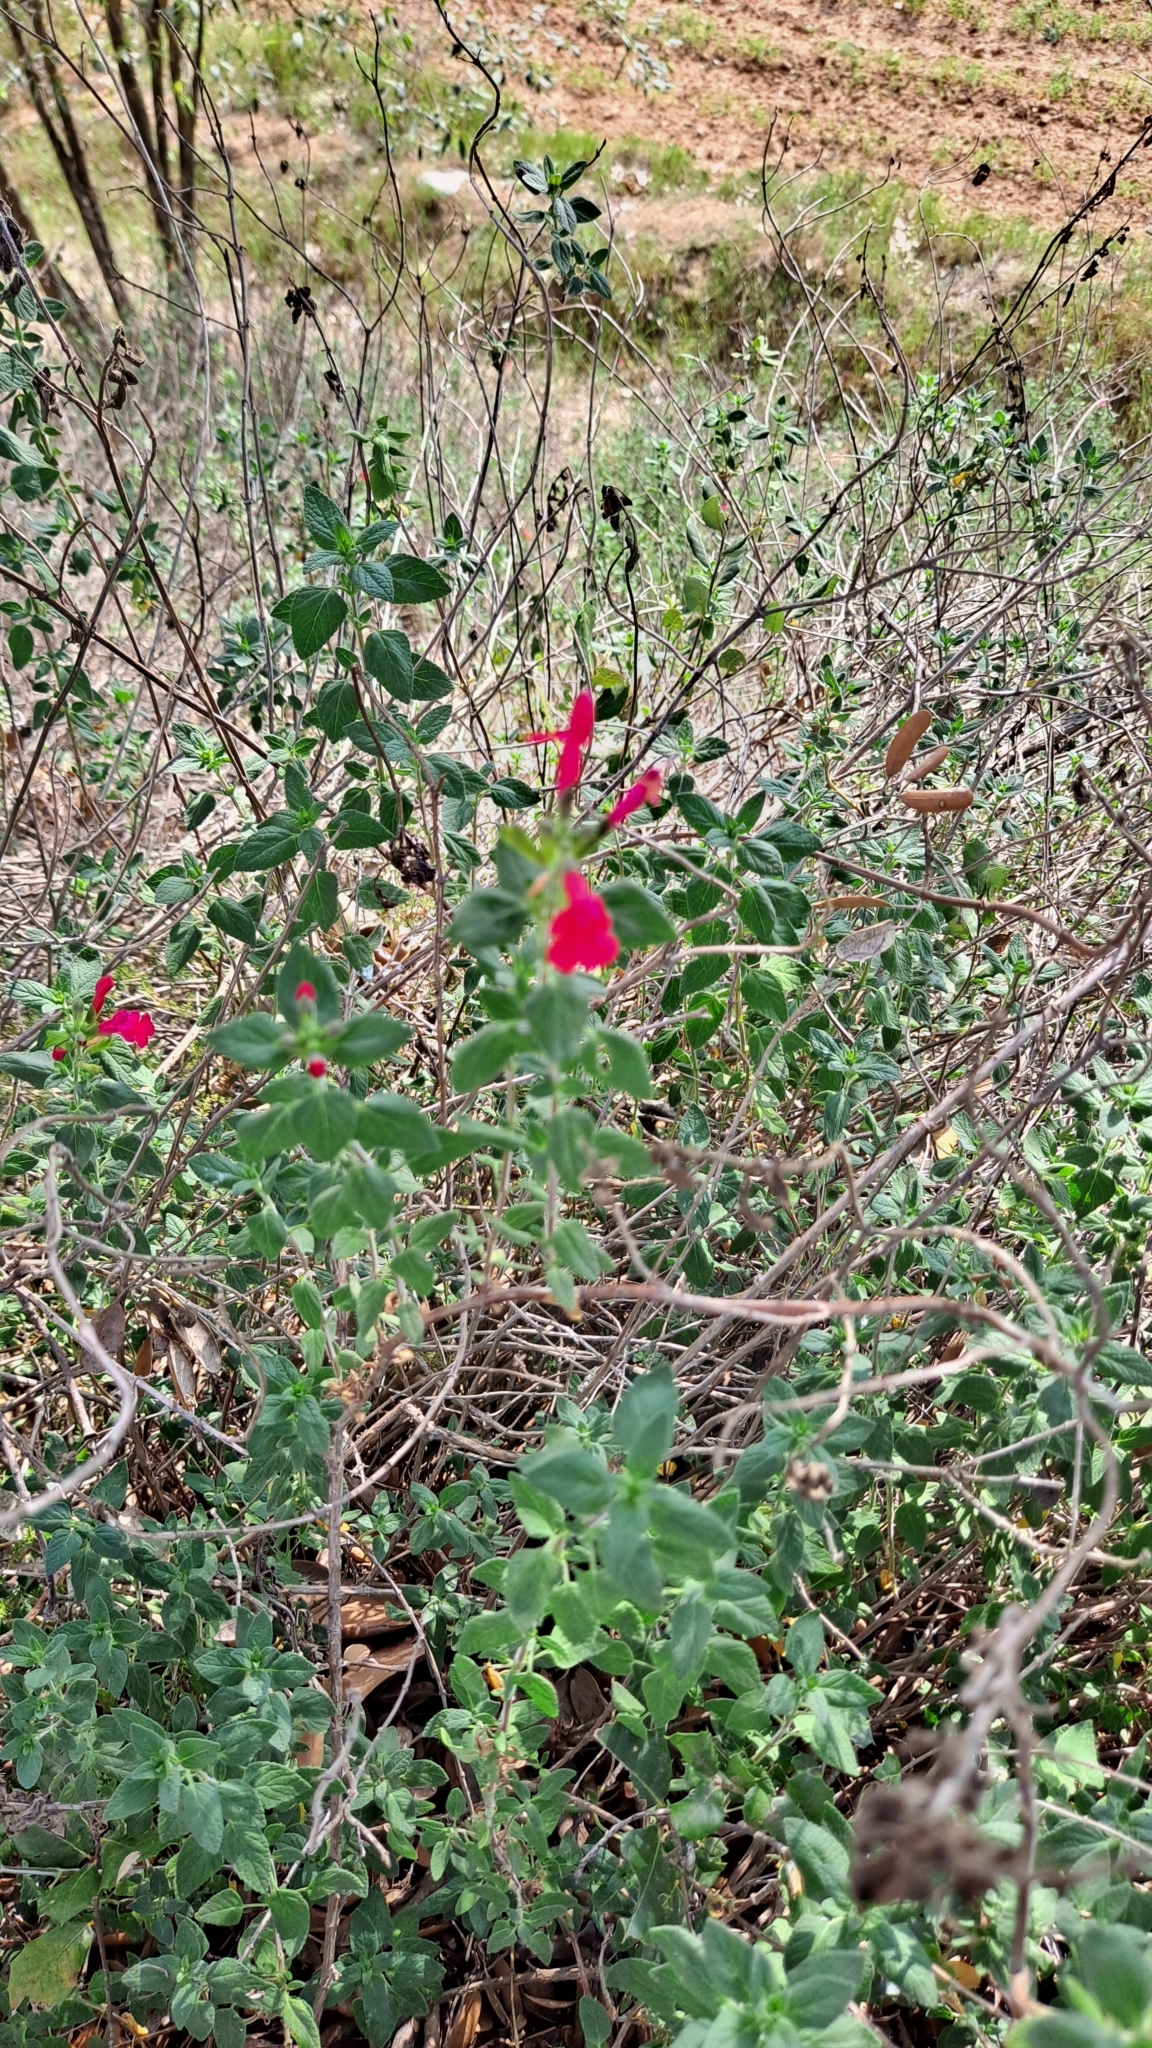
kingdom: Plantae
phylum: Tracheophyta
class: Magnoliopsida
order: Lamiales
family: Lamiaceae
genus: Salvia
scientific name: Salvia microphylla
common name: Baby sage
